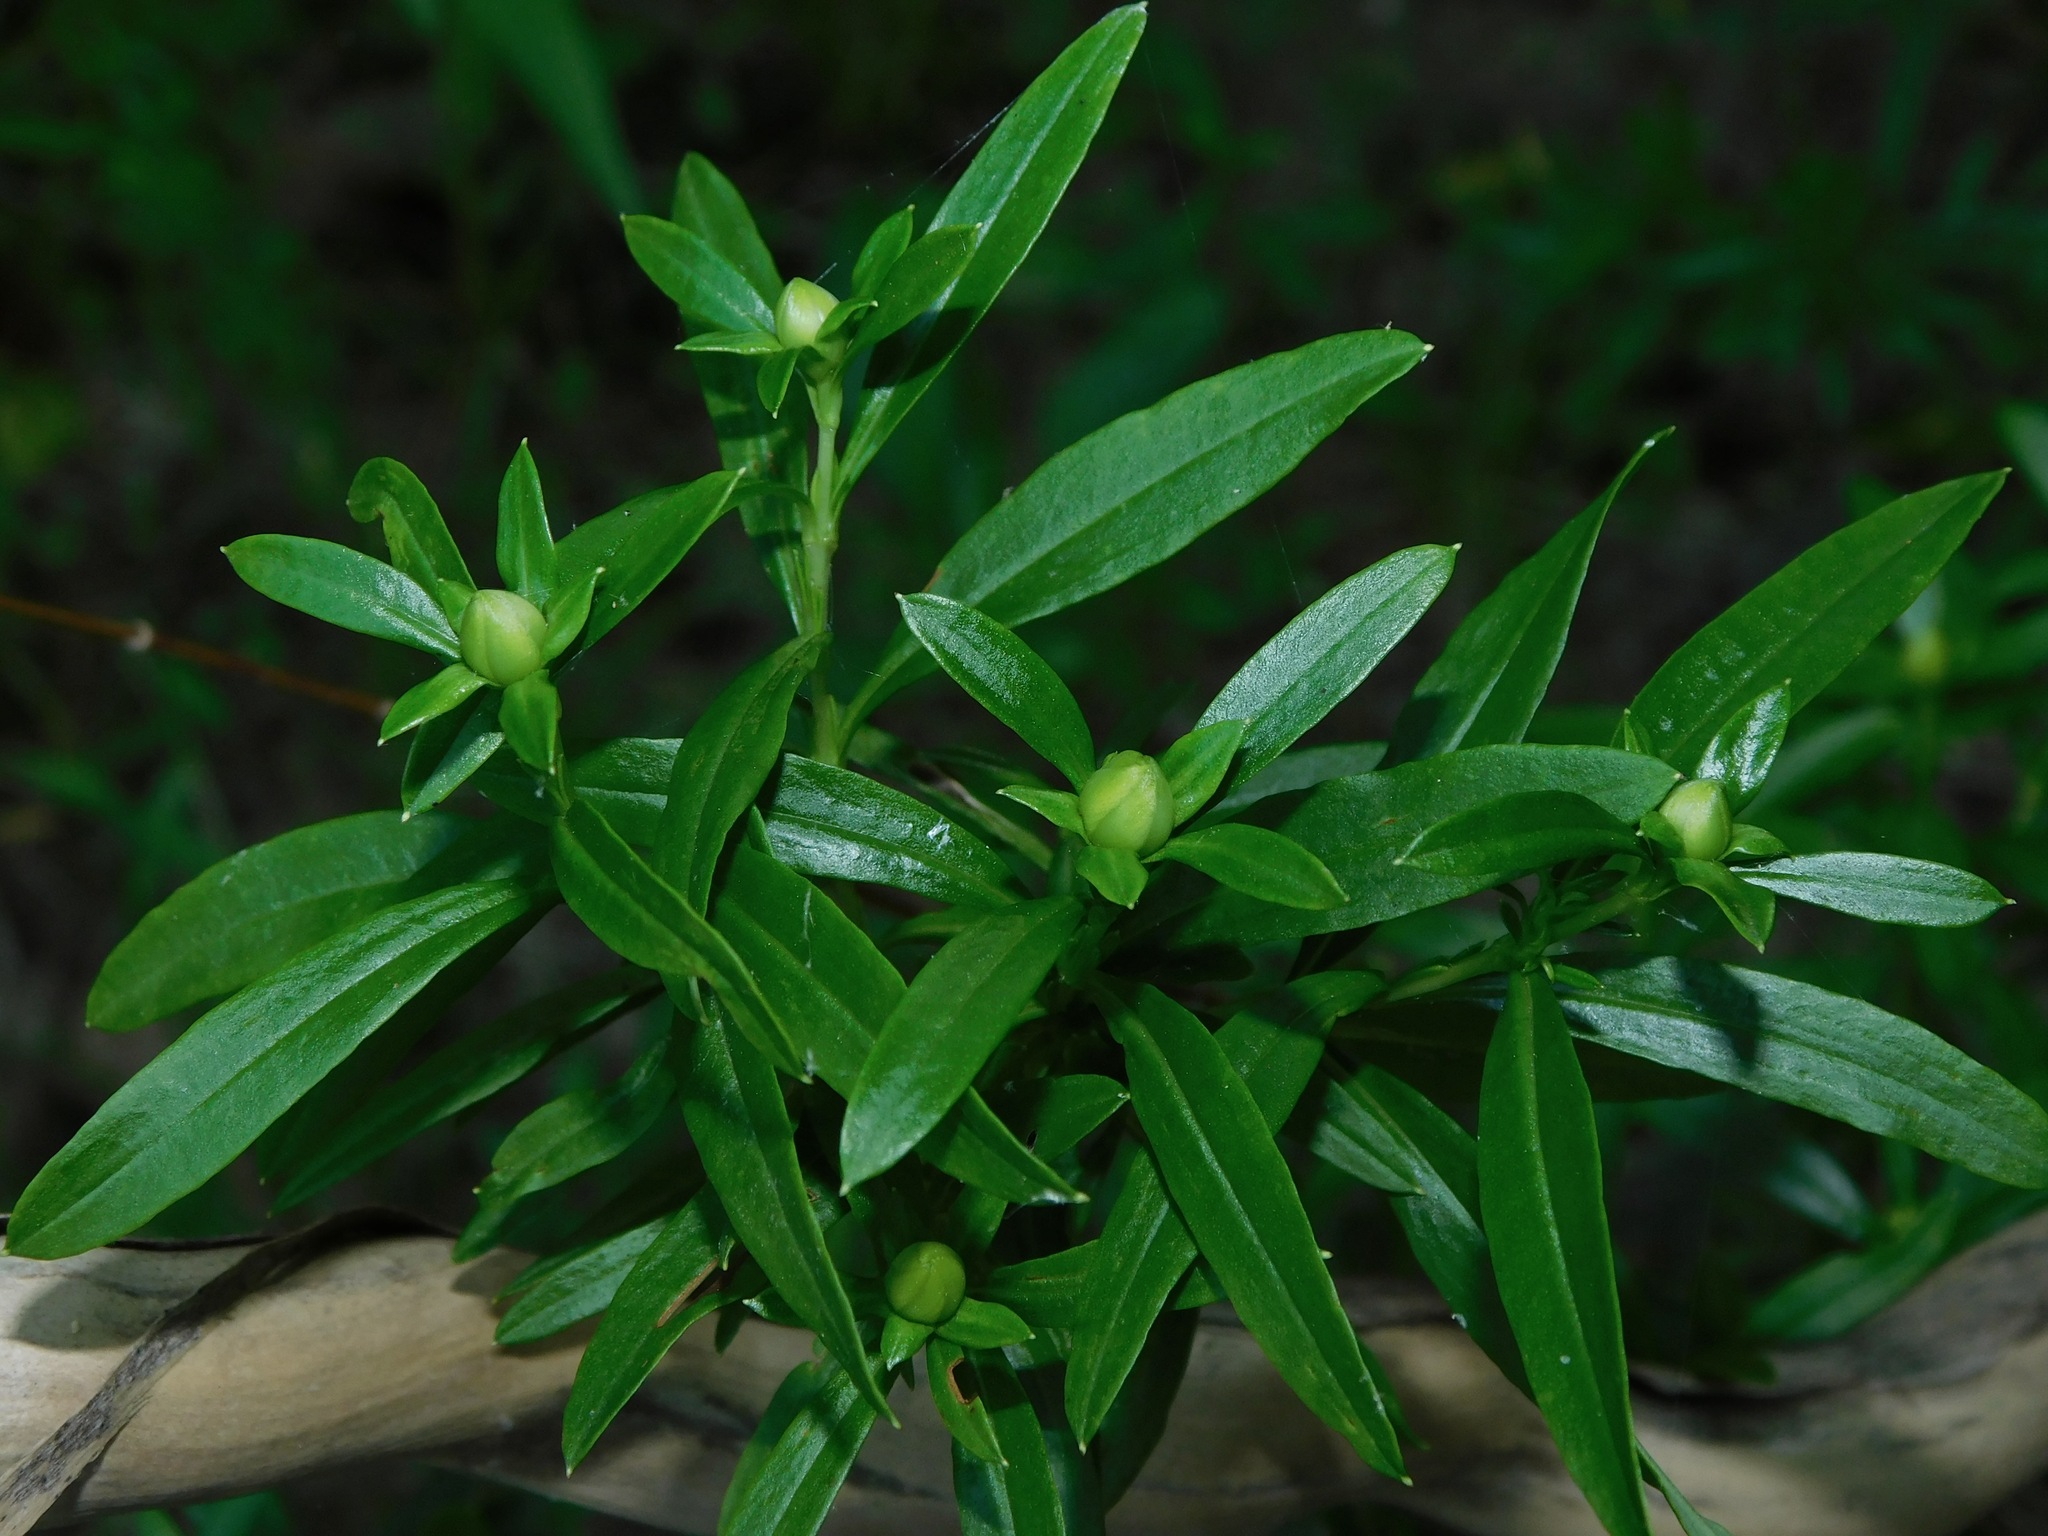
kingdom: Plantae
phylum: Tracheophyta
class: Magnoliopsida
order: Malpighiales
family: Hypericaceae
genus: Hypericum
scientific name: Hypericum prolificum
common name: Shrubby st. john's-wort
